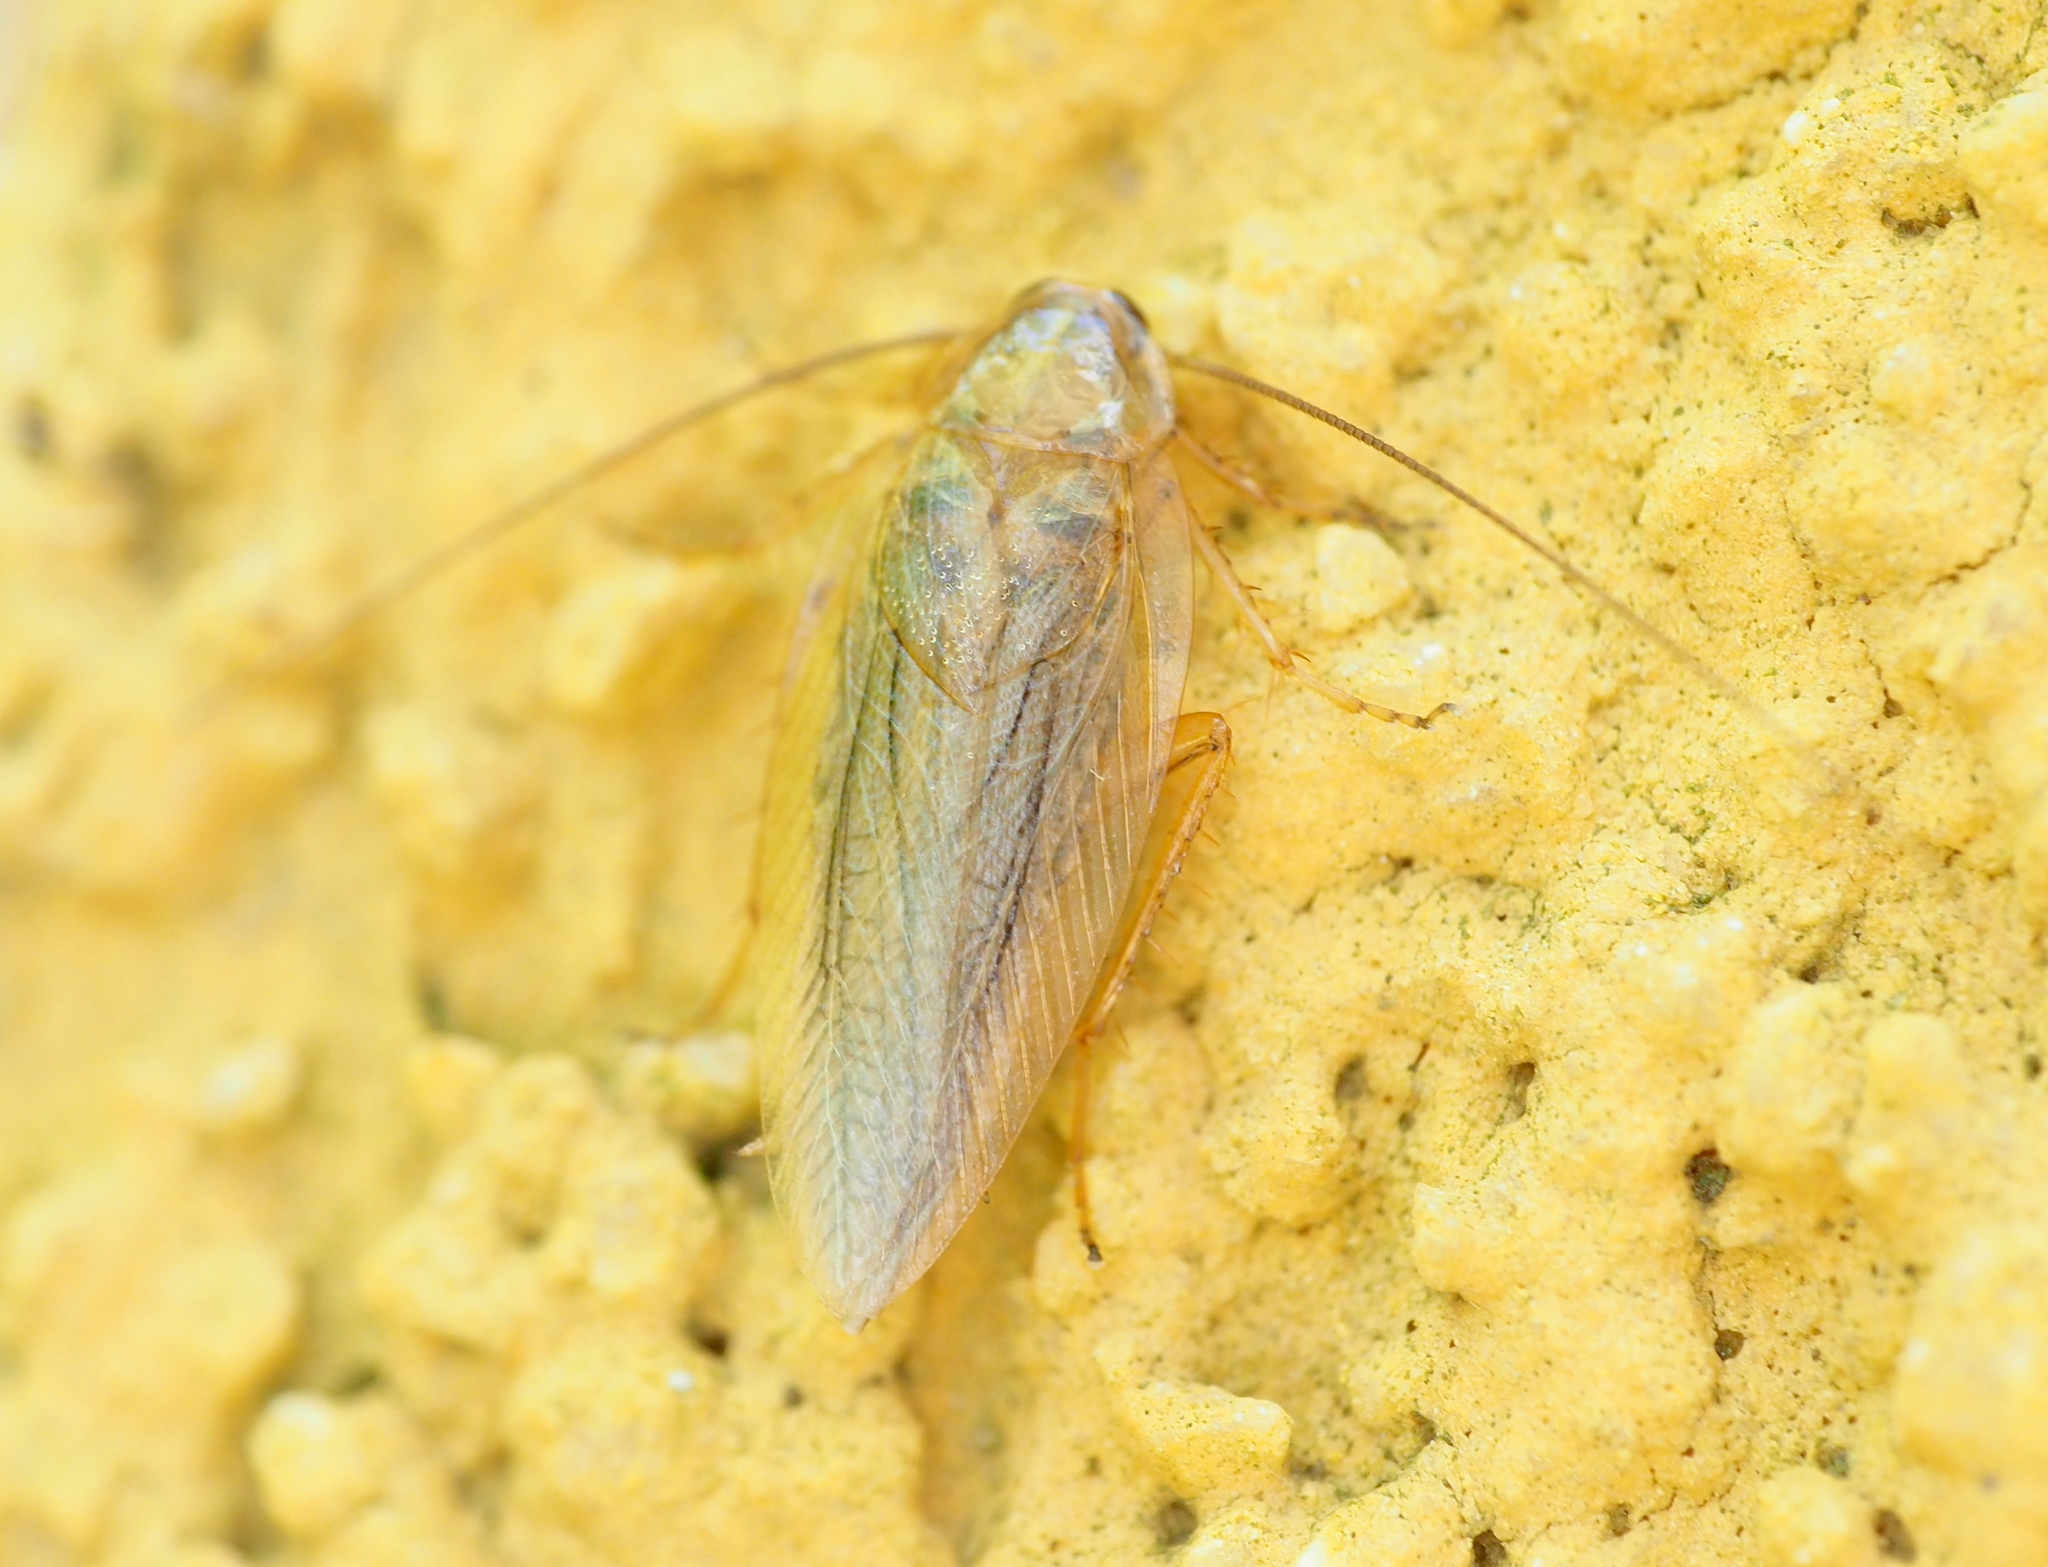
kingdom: Animalia
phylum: Arthropoda
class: Insecta
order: Blattodea
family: Ectobiidae
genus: Ectobius
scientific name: Ectobius vittiventris
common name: Garden cockroach
